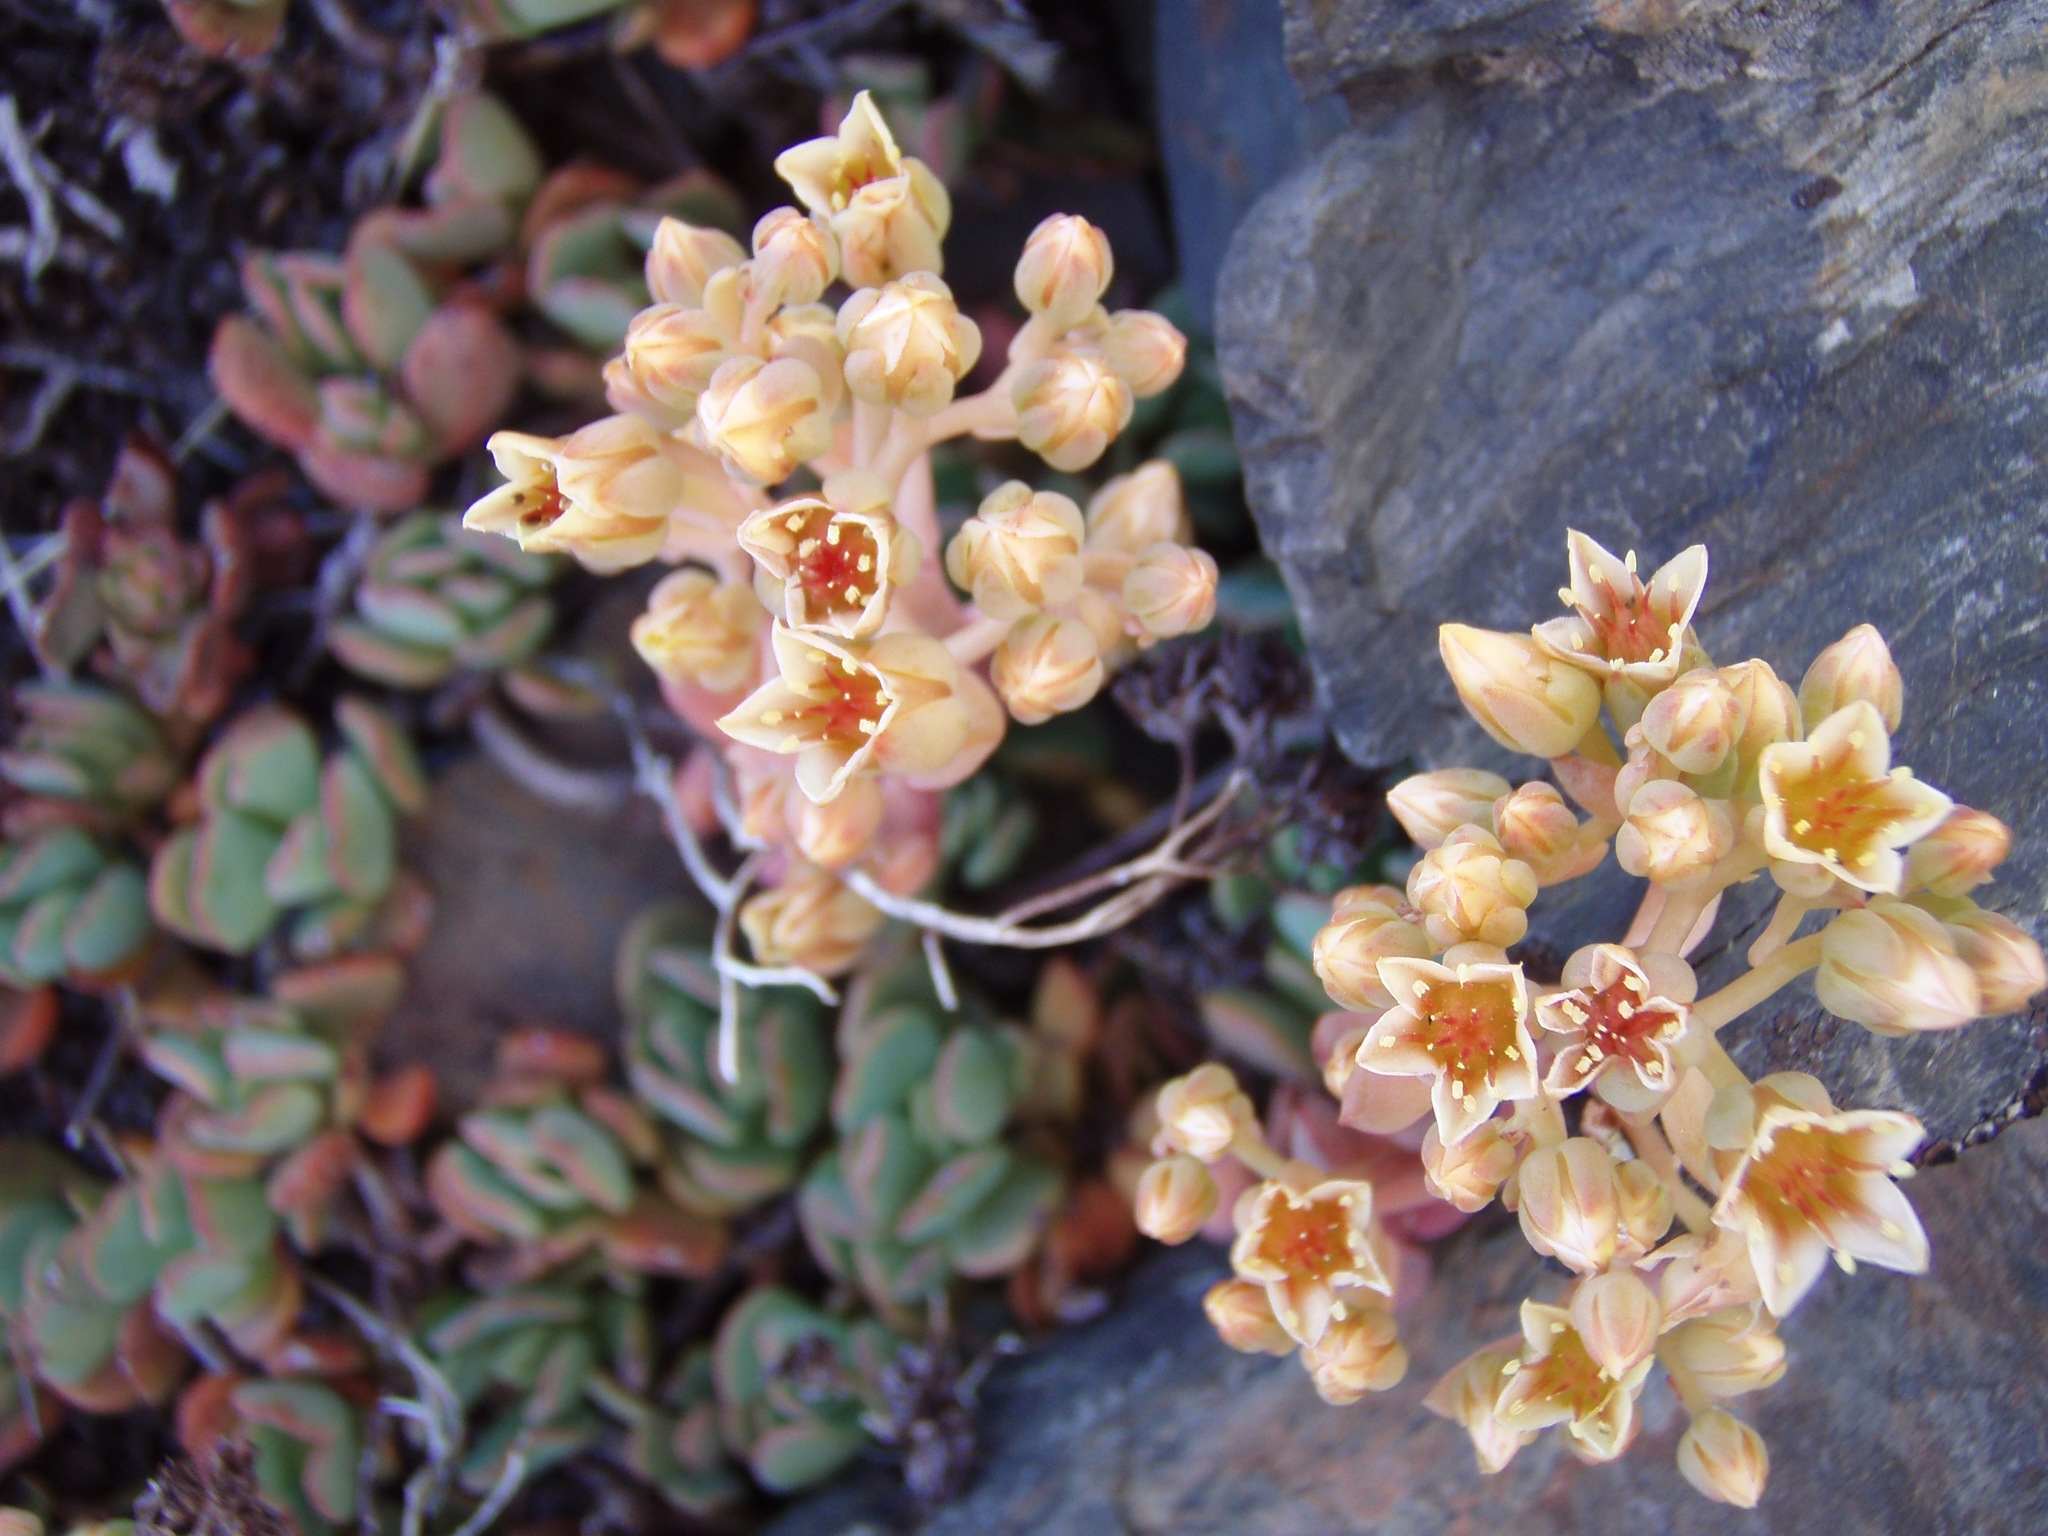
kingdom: Plantae
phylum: Tracheophyta
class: Magnoliopsida
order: Saxifragales
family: Crassulaceae
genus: Sedum
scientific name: Sedum obtusatum
